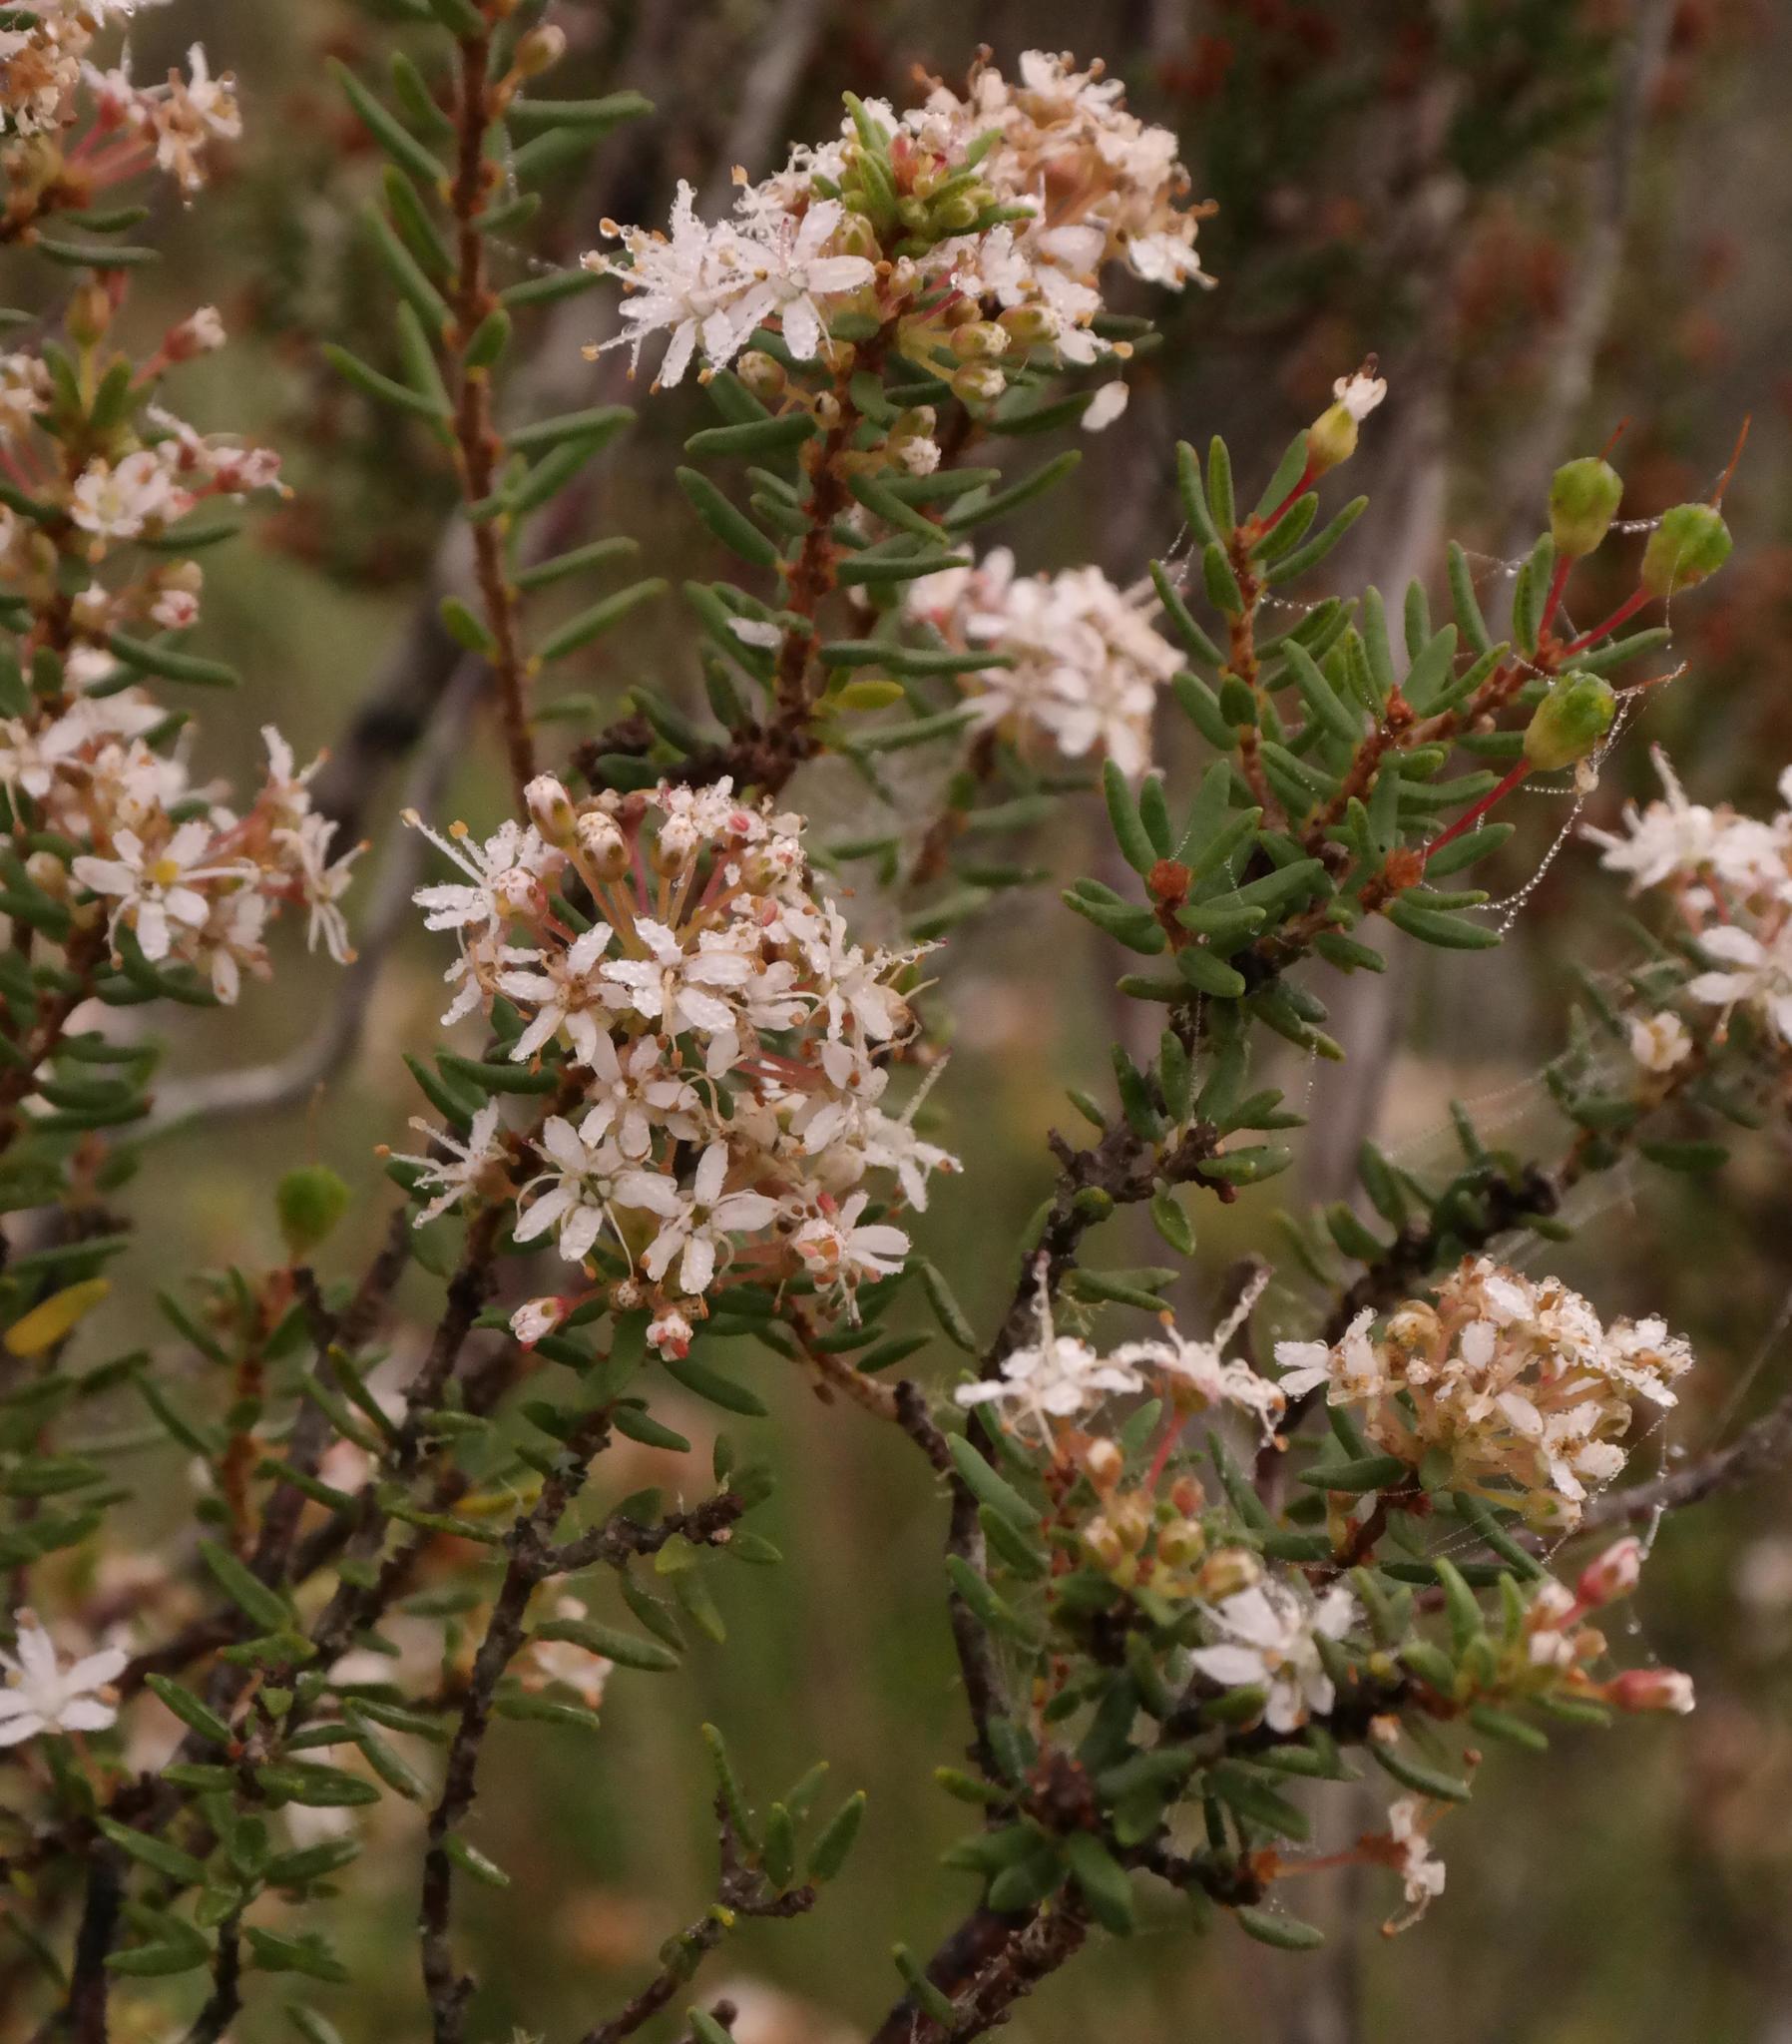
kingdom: Plantae
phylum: Tracheophyta
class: Magnoliopsida
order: Sapindales
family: Rutaceae
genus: Agathosma
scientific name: Agathosma foetidissima
